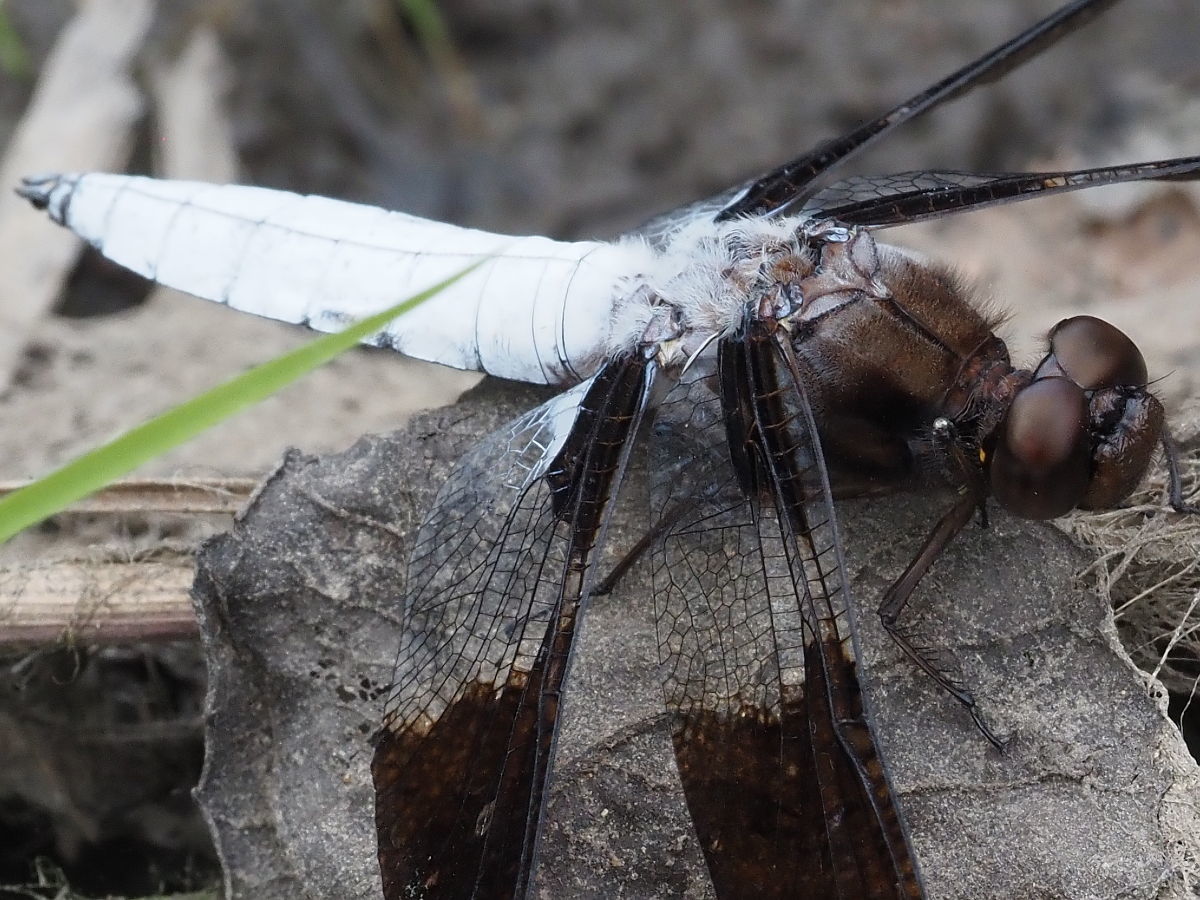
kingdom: Animalia
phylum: Arthropoda
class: Insecta
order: Odonata
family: Libellulidae
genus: Plathemis
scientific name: Plathemis lydia
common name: Common whitetail
